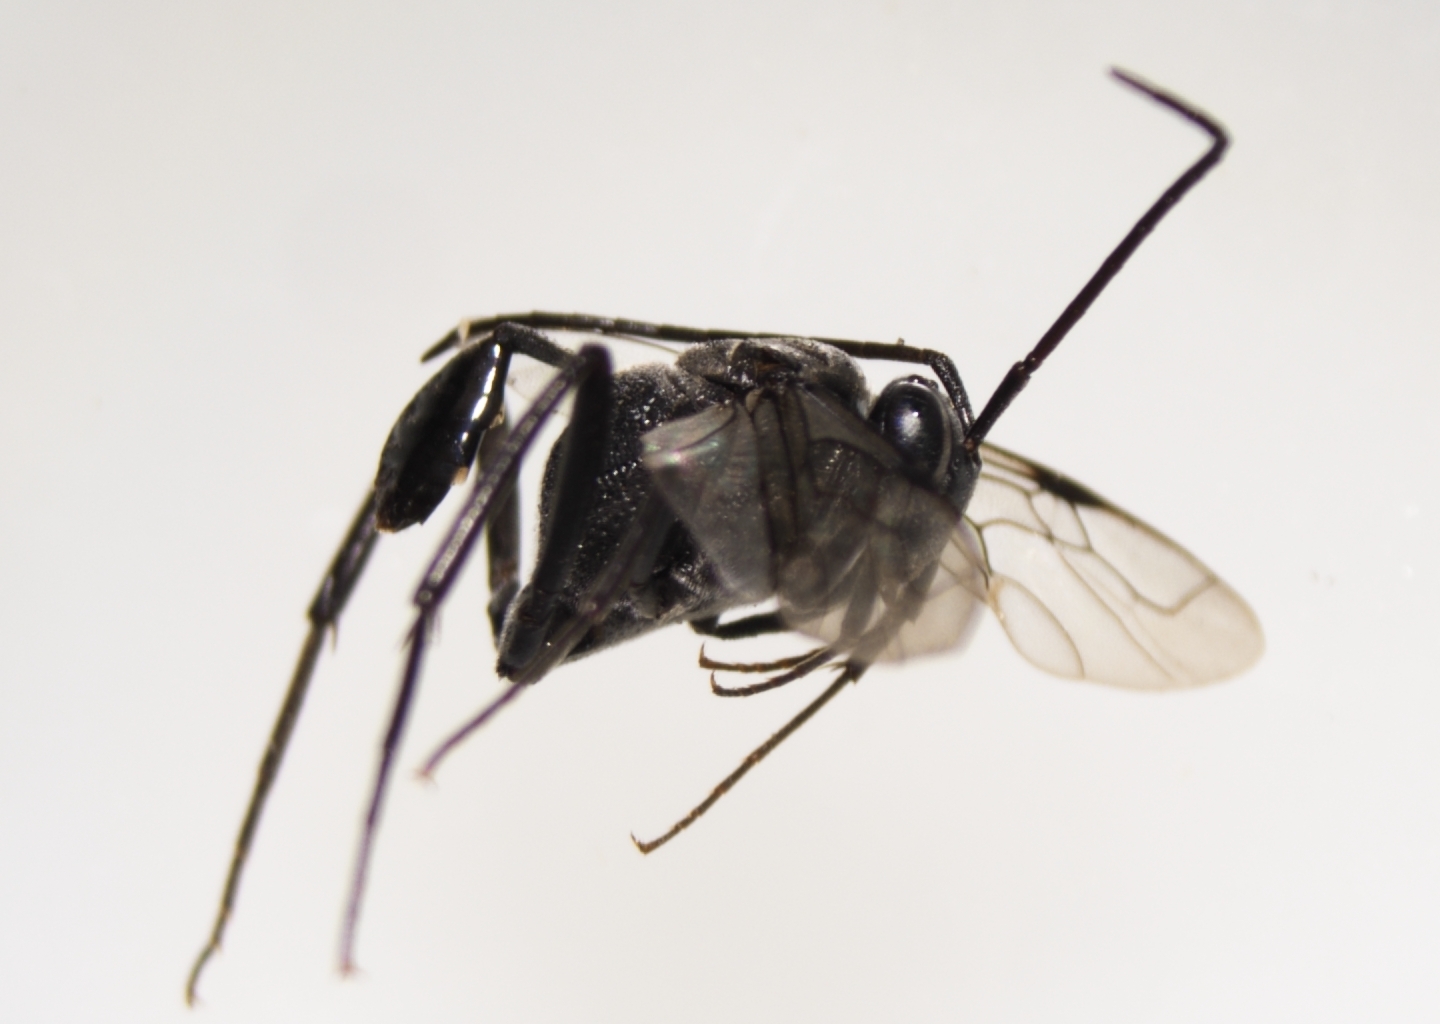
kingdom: Animalia
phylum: Arthropoda
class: Insecta
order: Hymenoptera
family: Evaniidae
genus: Evania
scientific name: Evania appendigaster
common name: Ensign wasp
